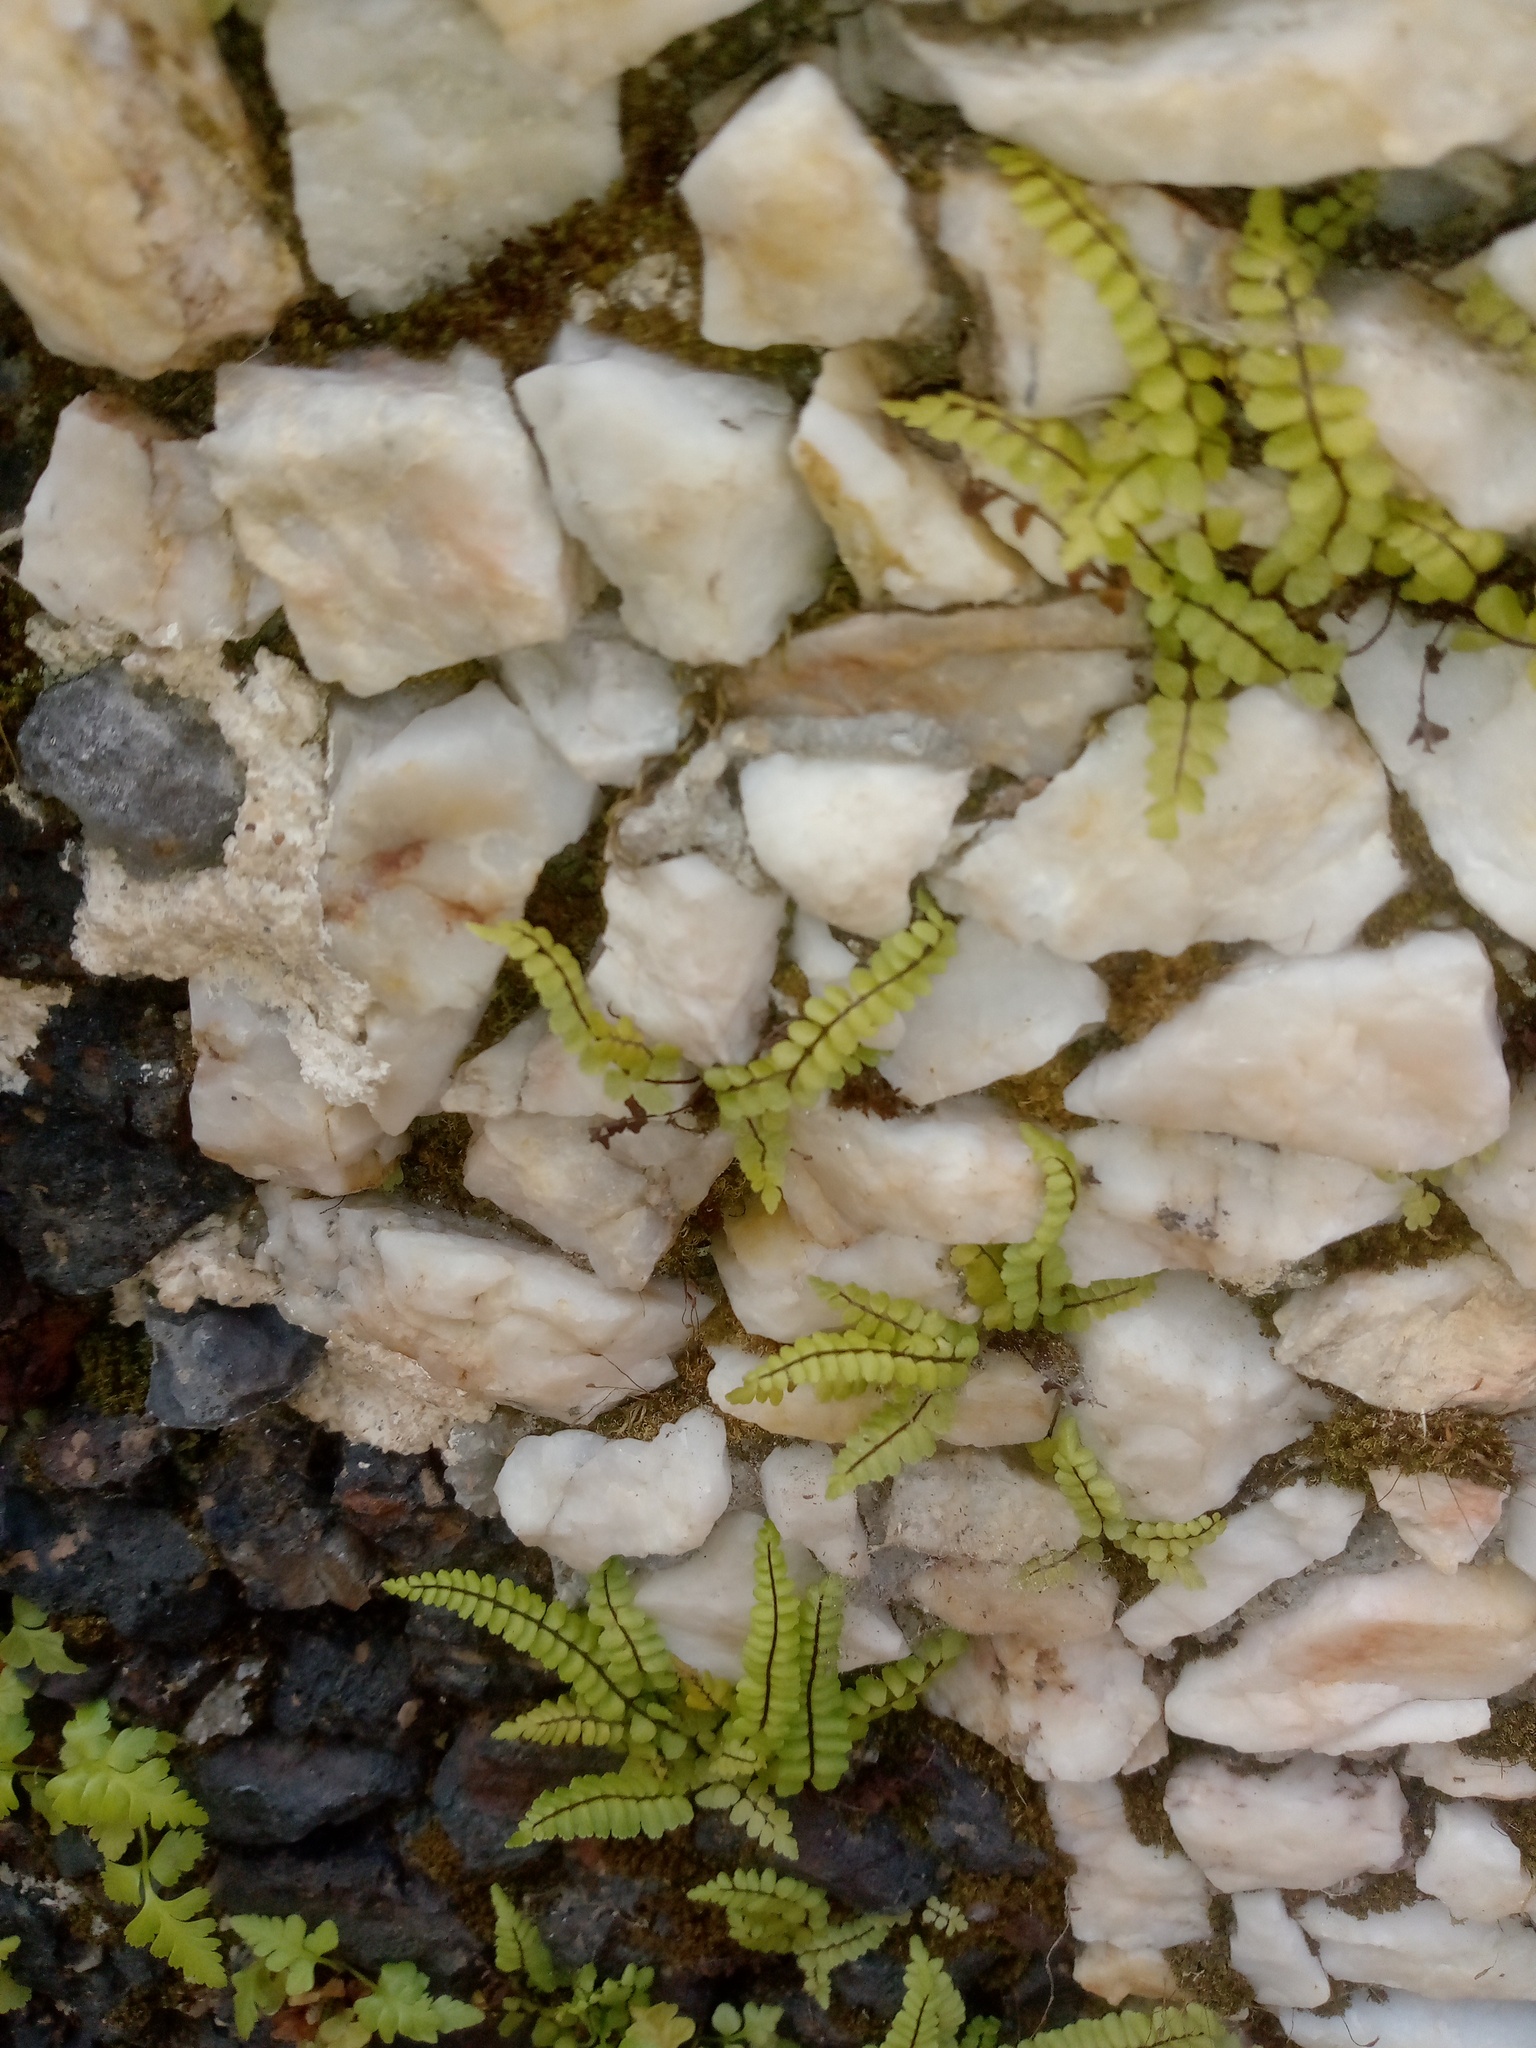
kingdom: Plantae
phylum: Tracheophyta
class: Polypodiopsida
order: Polypodiales
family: Aspleniaceae
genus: Asplenium
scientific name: Asplenium trichomanes
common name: Maidenhair spleenwort
